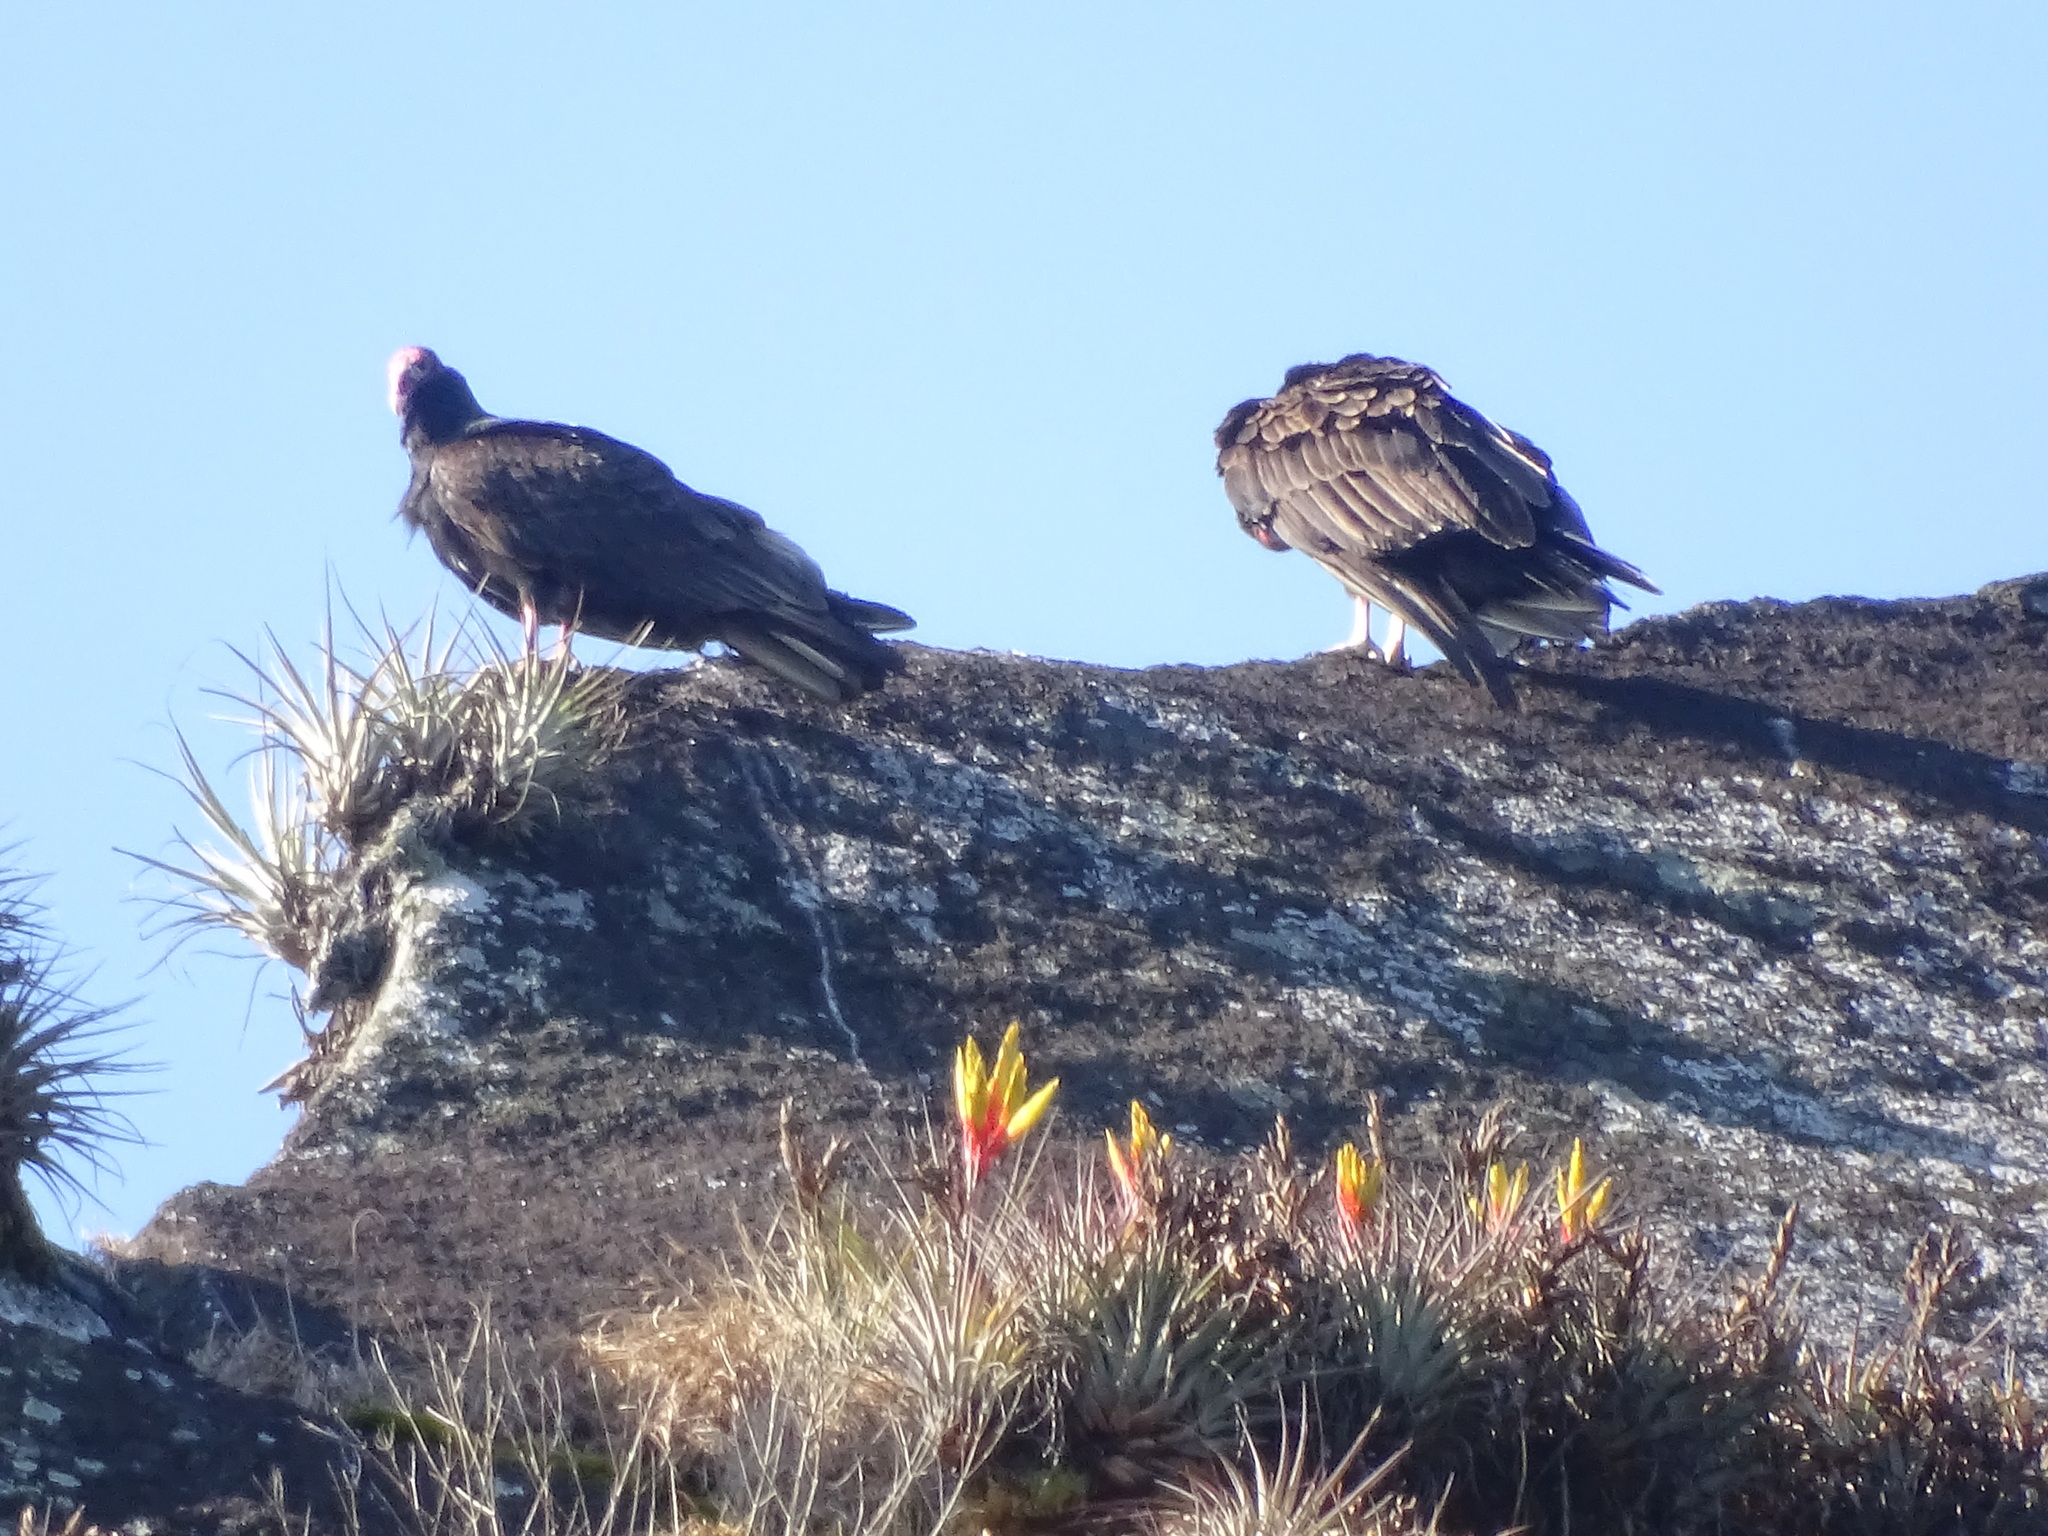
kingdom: Animalia
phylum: Chordata
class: Aves
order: Accipitriformes
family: Cathartidae
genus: Cathartes
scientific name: Cathartes aura
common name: Turkey vulture
